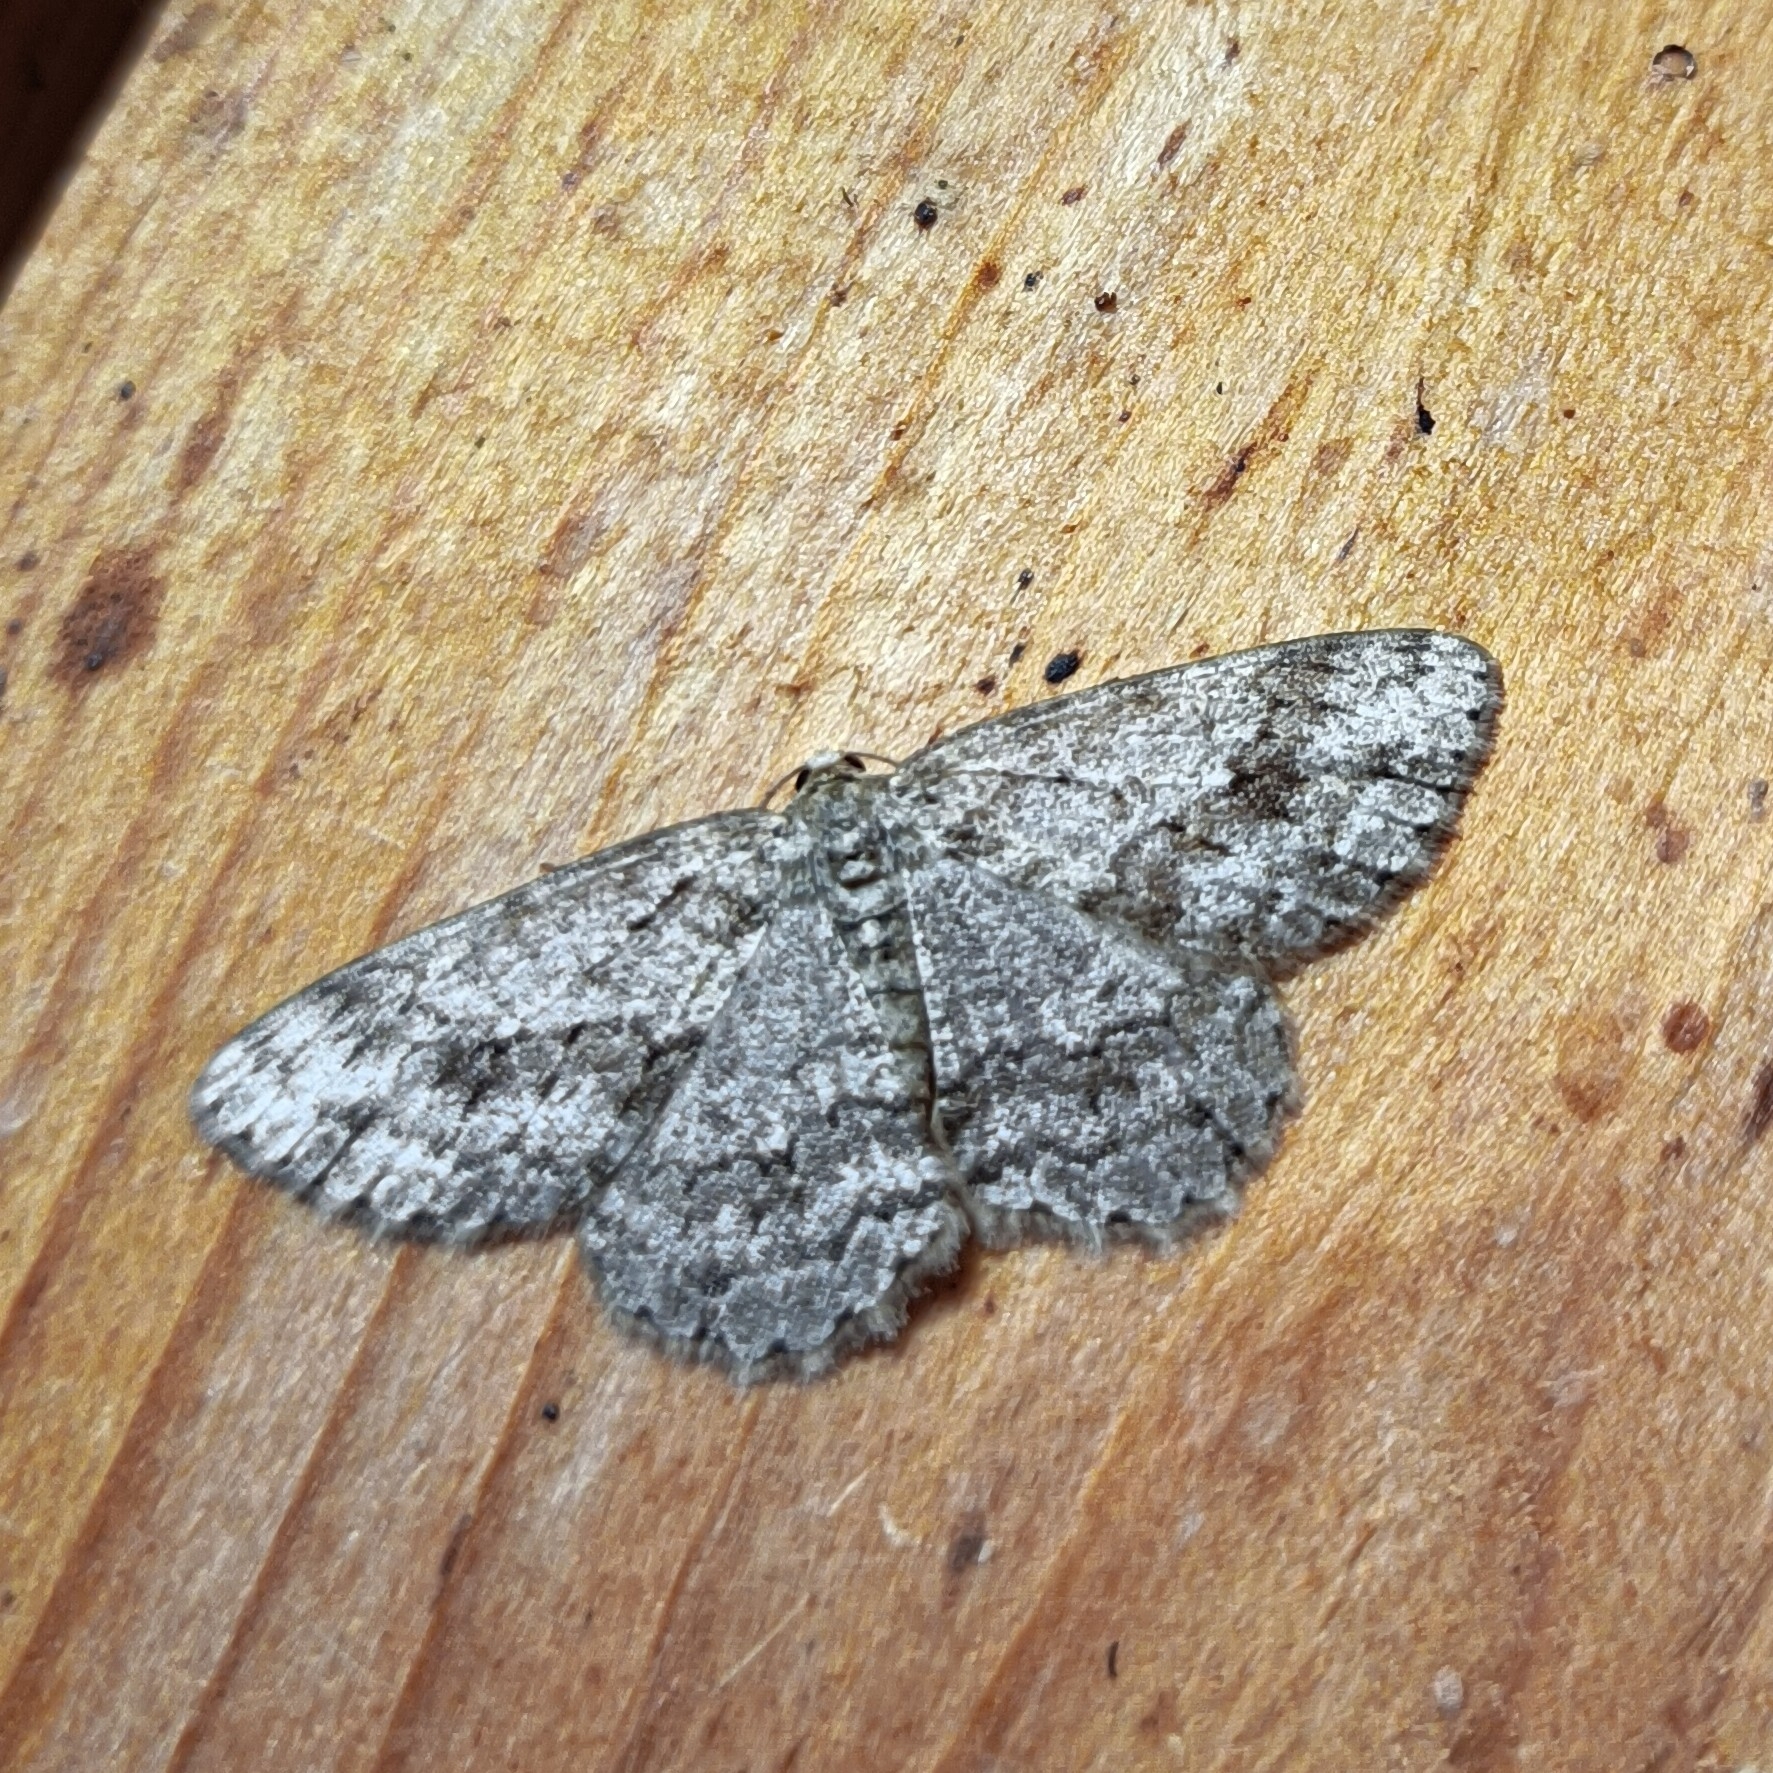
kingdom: Animalia
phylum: Arthropoda
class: Insecta
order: Lepidoptera
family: Geometridae
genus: Ectropis
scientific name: Ectropis crepuscularia
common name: Engrailed
